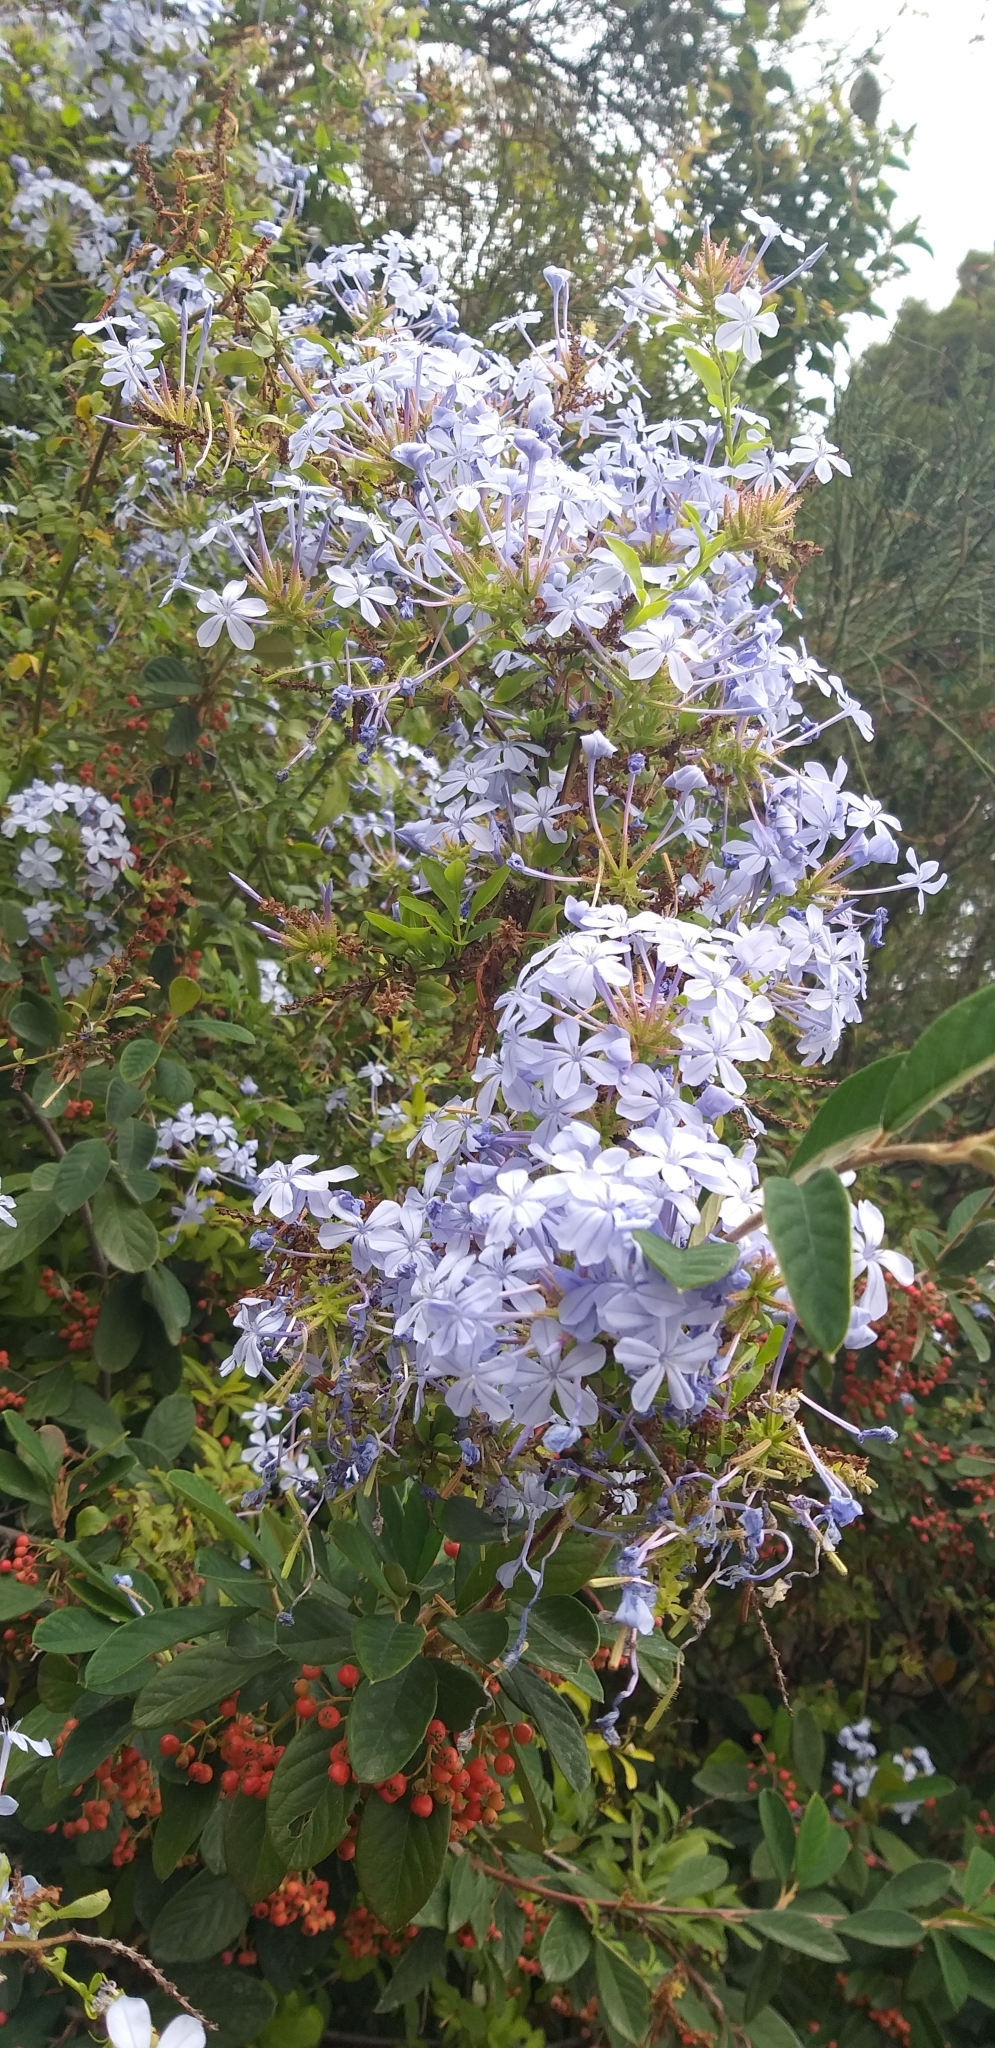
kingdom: Plantae
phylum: Tracheophyta
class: Magnoliopsida
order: Caryophyllales
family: Plumbaginaceae
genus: Plumbago
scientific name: Plumbago auriculata
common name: Cape leadwort
